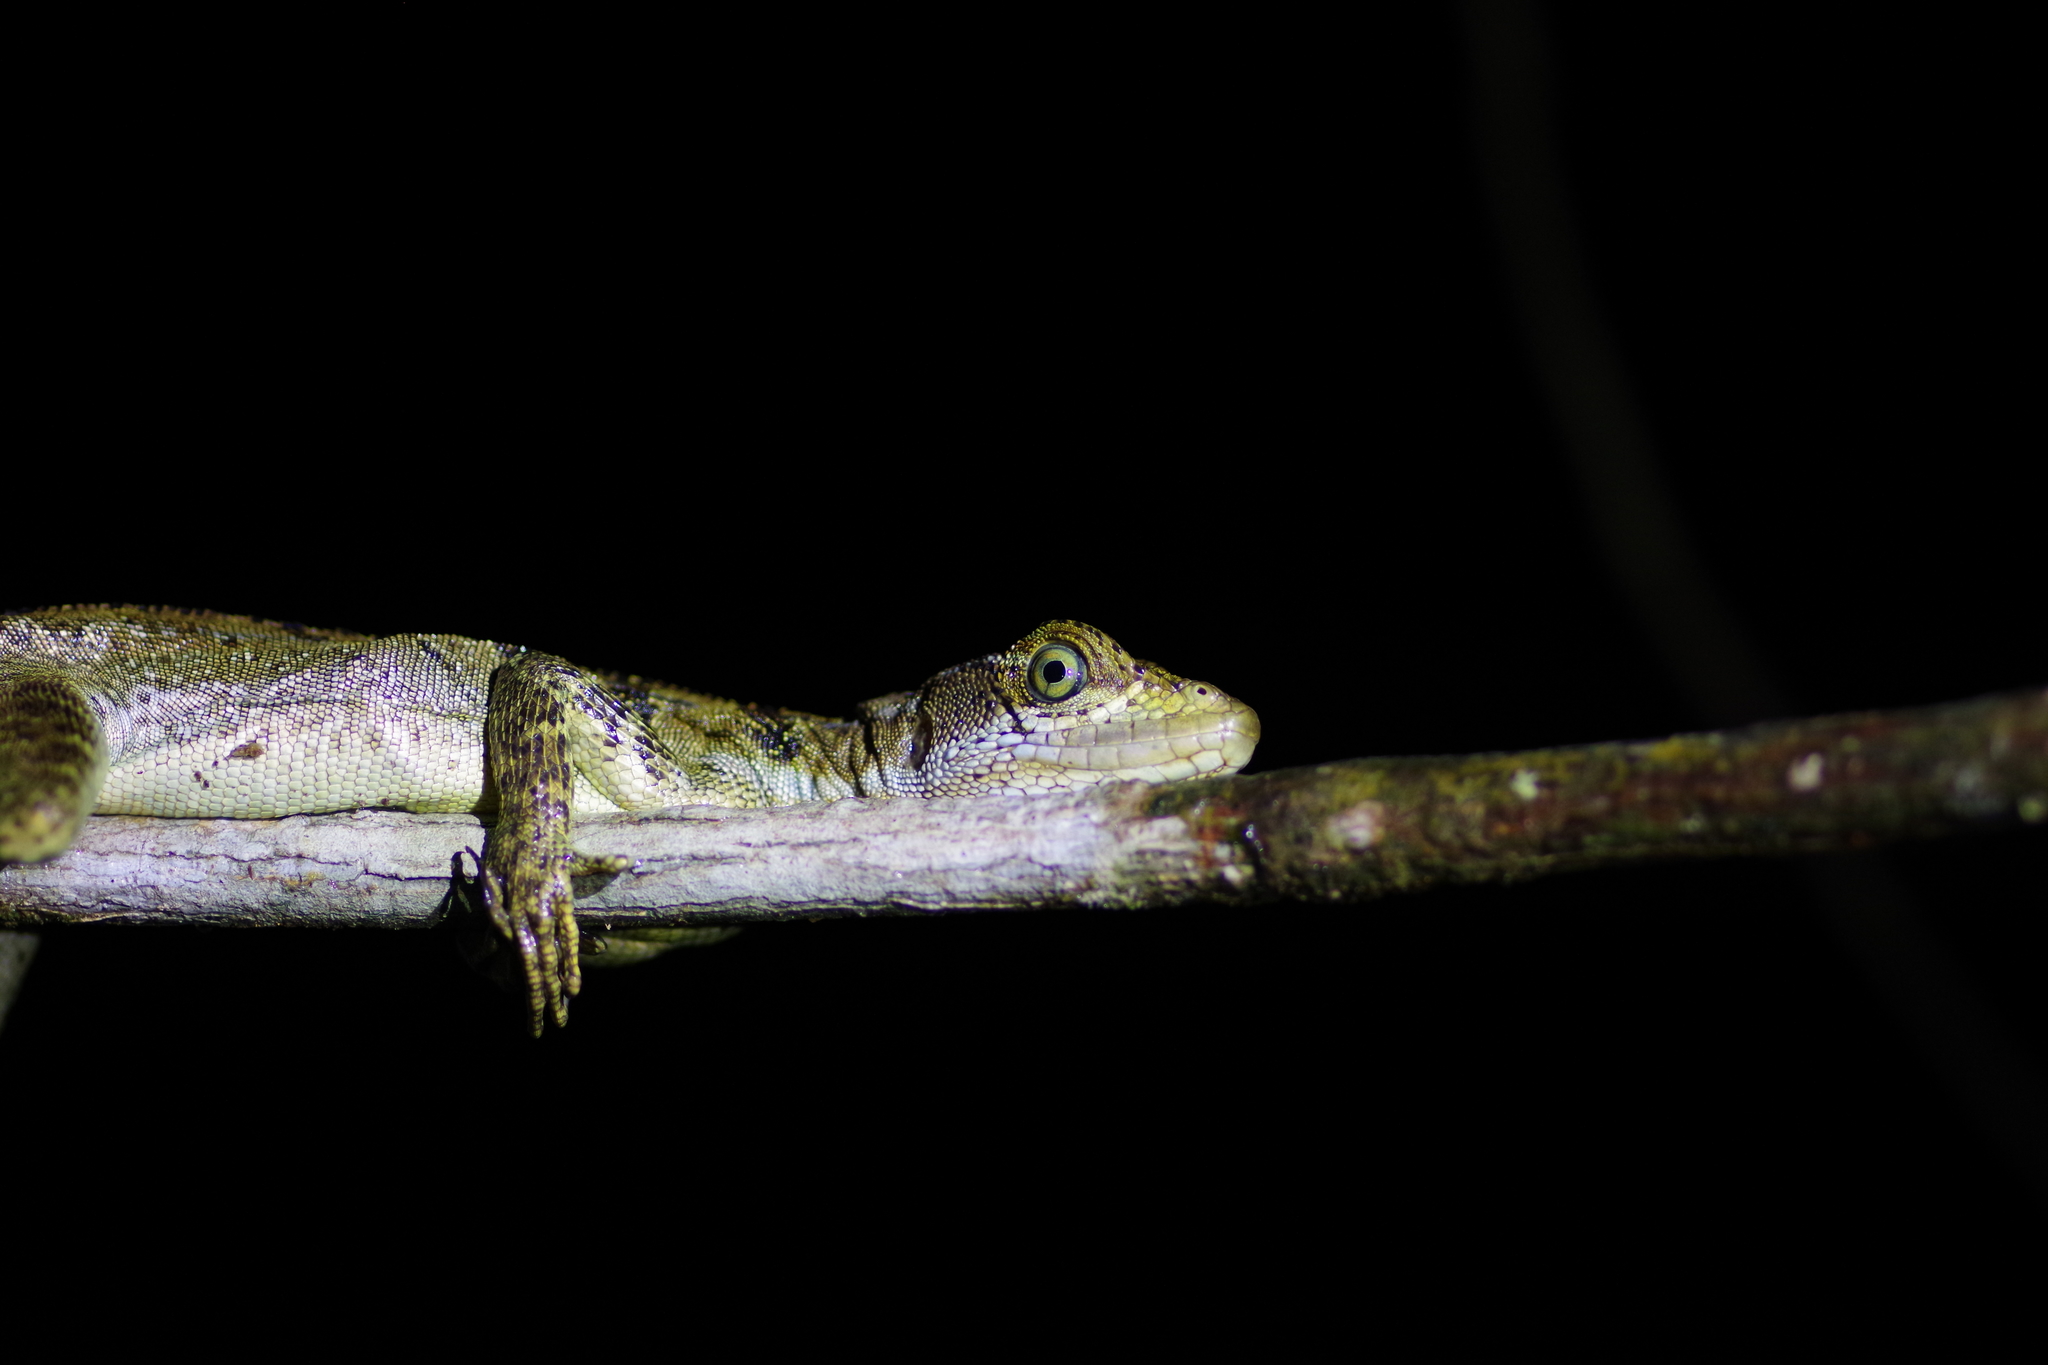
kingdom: Animalia
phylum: Chordata
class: Squamata
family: Corytophanidae
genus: Basiliscus
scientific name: Basiliscus basiliscus
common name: Common basilisk
